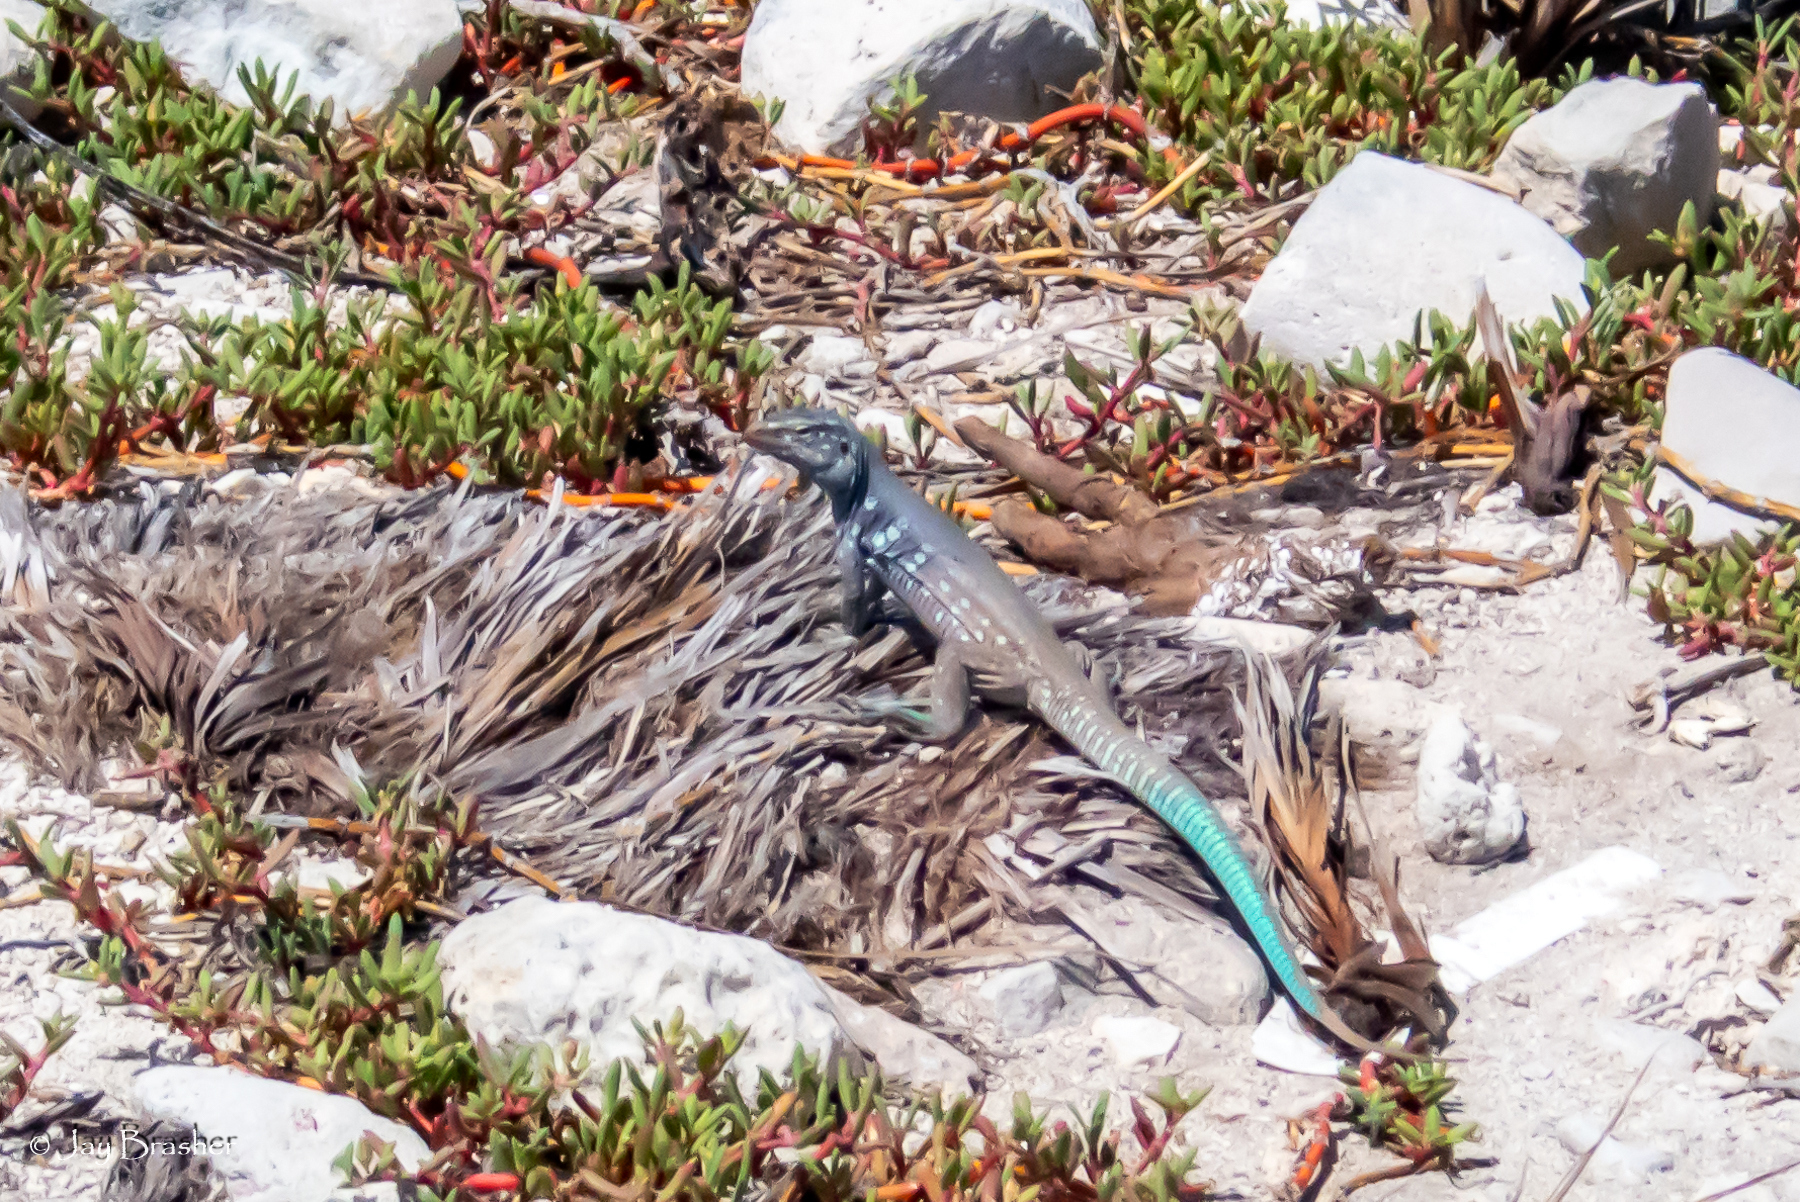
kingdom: Animalia
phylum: Chordata
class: Squamata
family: Teiidae
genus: Cnemidophorus
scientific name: Cnemidophorus ruthveni
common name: Bonaire whiptail
